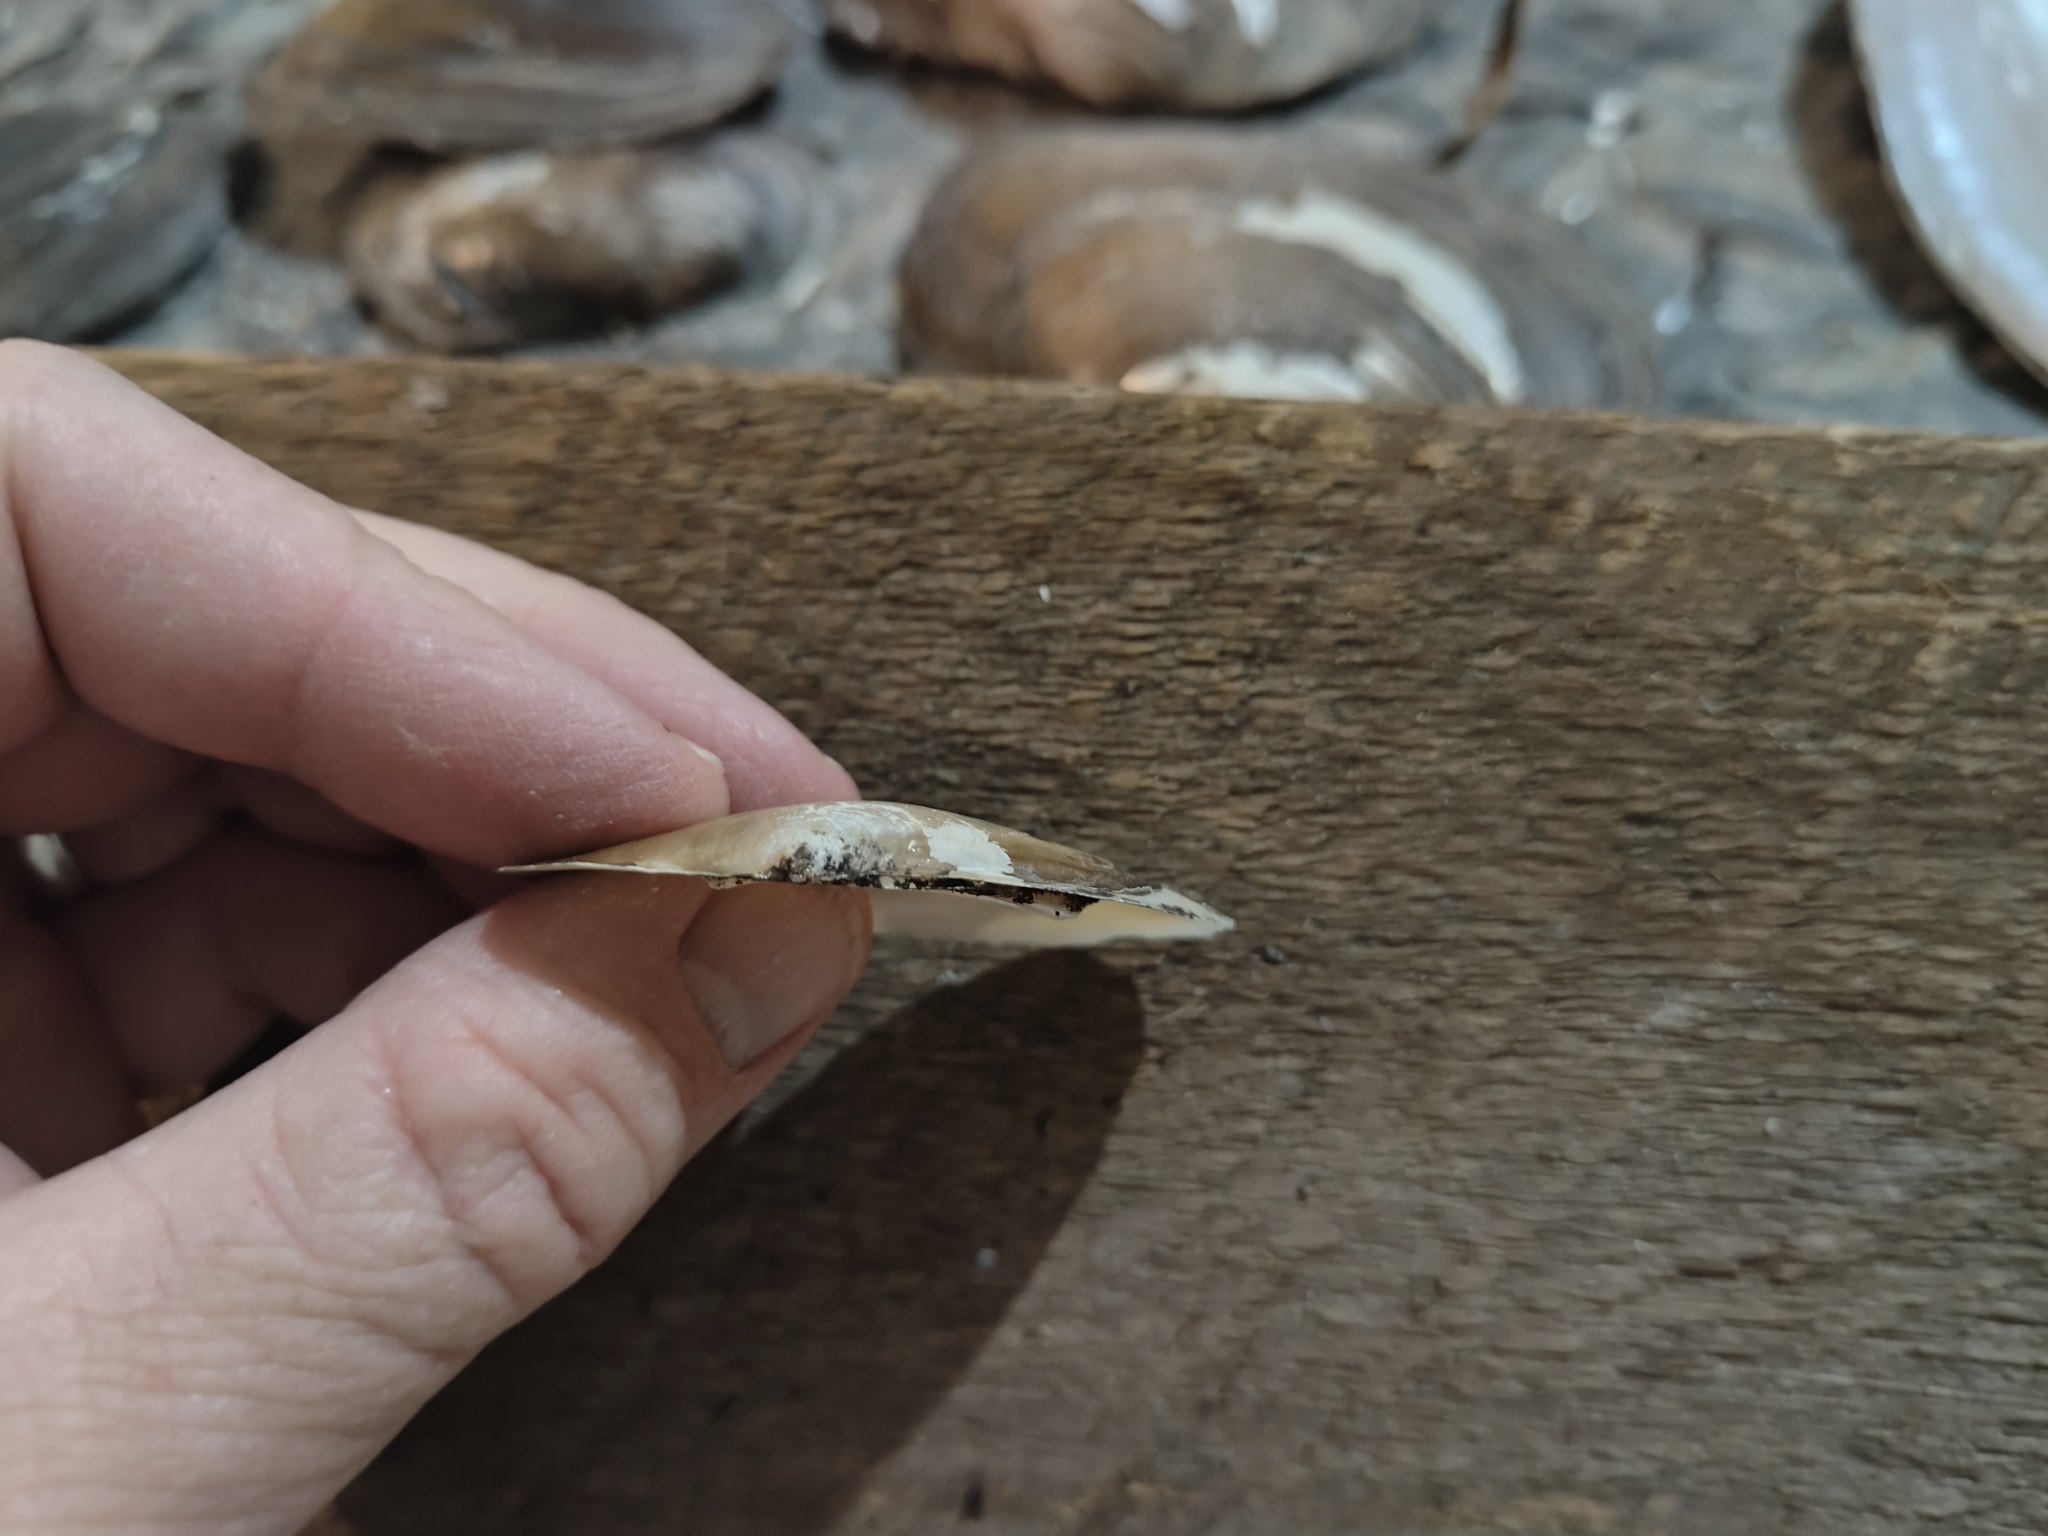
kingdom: Animalia
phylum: Mollusca
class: Bivalvia
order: Unionida
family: Unionidae
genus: Potamilus
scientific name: Potamilus fragilis
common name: Fragile papershell
